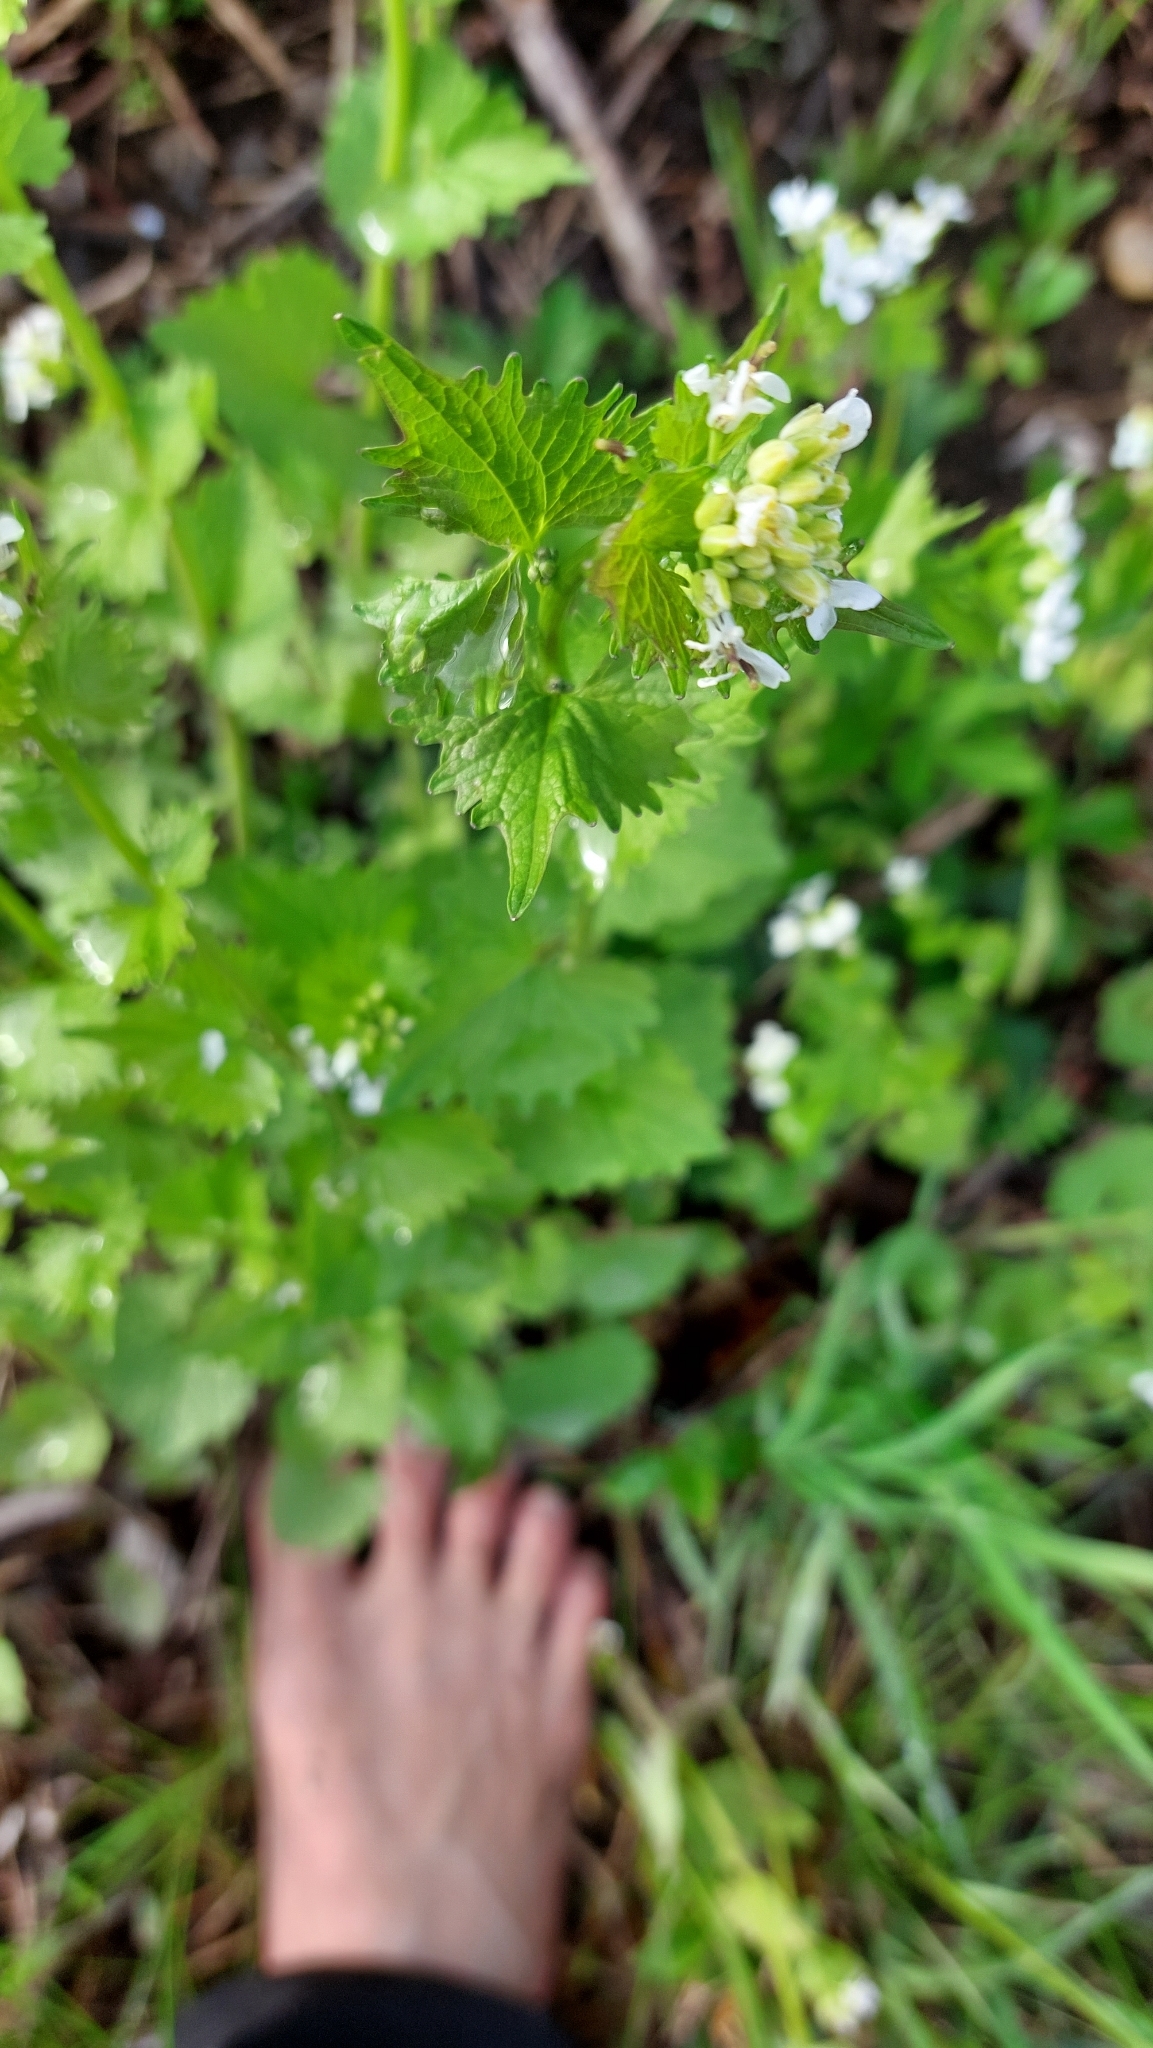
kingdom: Plantae
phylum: Tracheophyta
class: Magnoliopsida
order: Brassicales
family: Brassicaceae
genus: Alliaria
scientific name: Alliaria petiolata
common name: Garlic mustard
